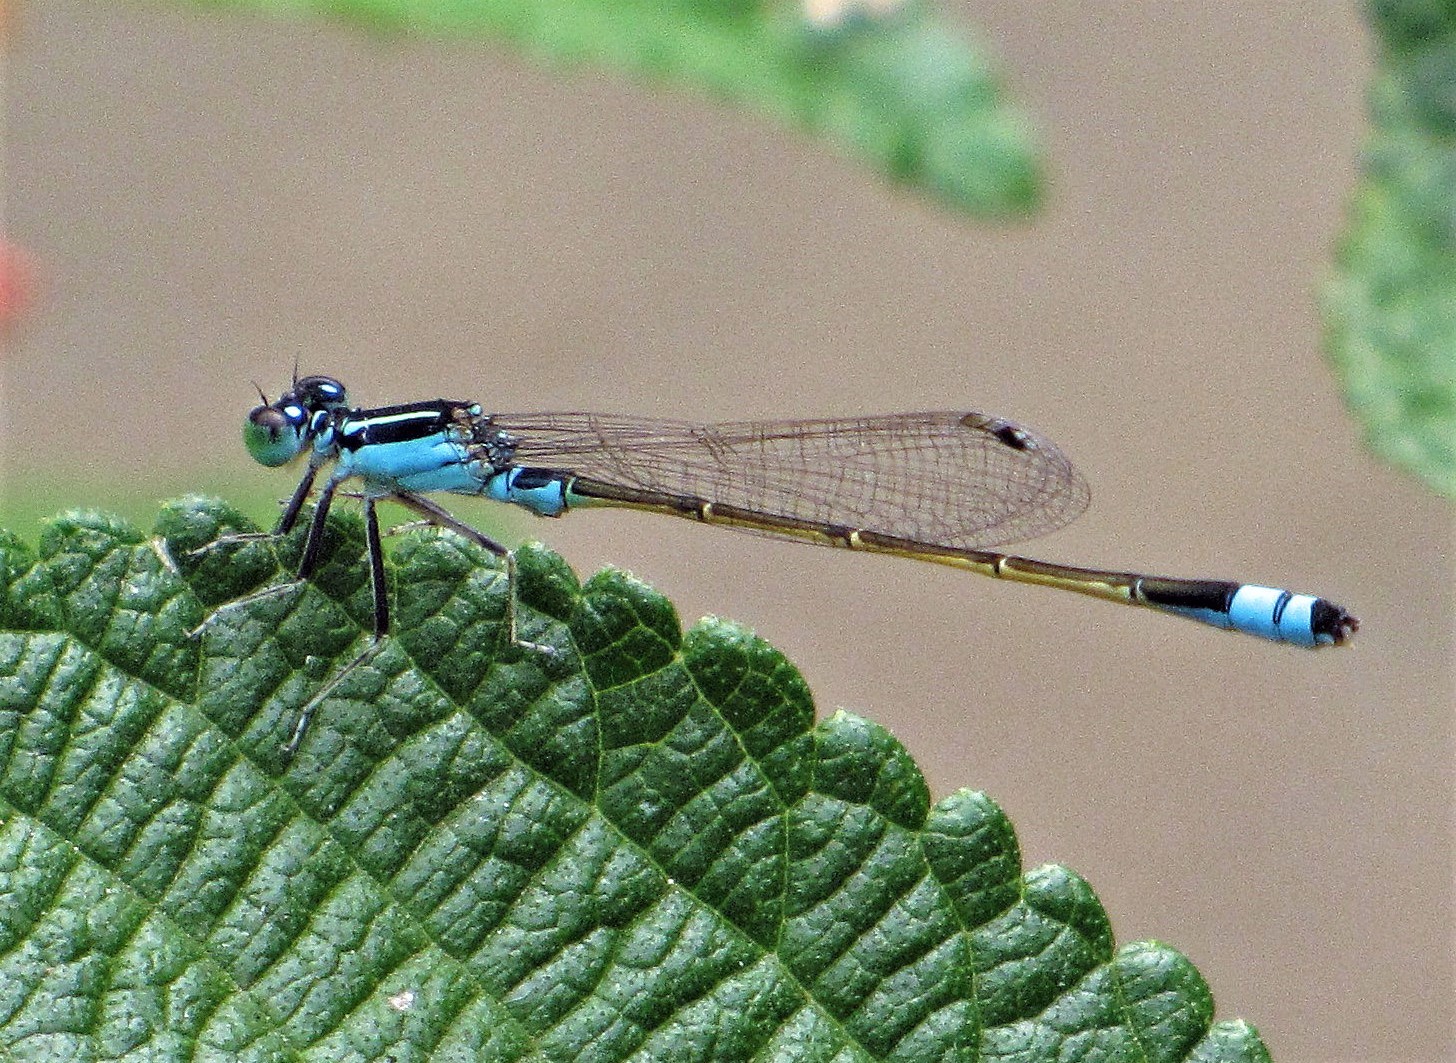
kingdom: Animalia
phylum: Arthropoda
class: Insecta
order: Odonata
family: Coenagrionidae
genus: Ischnura
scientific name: Ischnura fluviatilis
